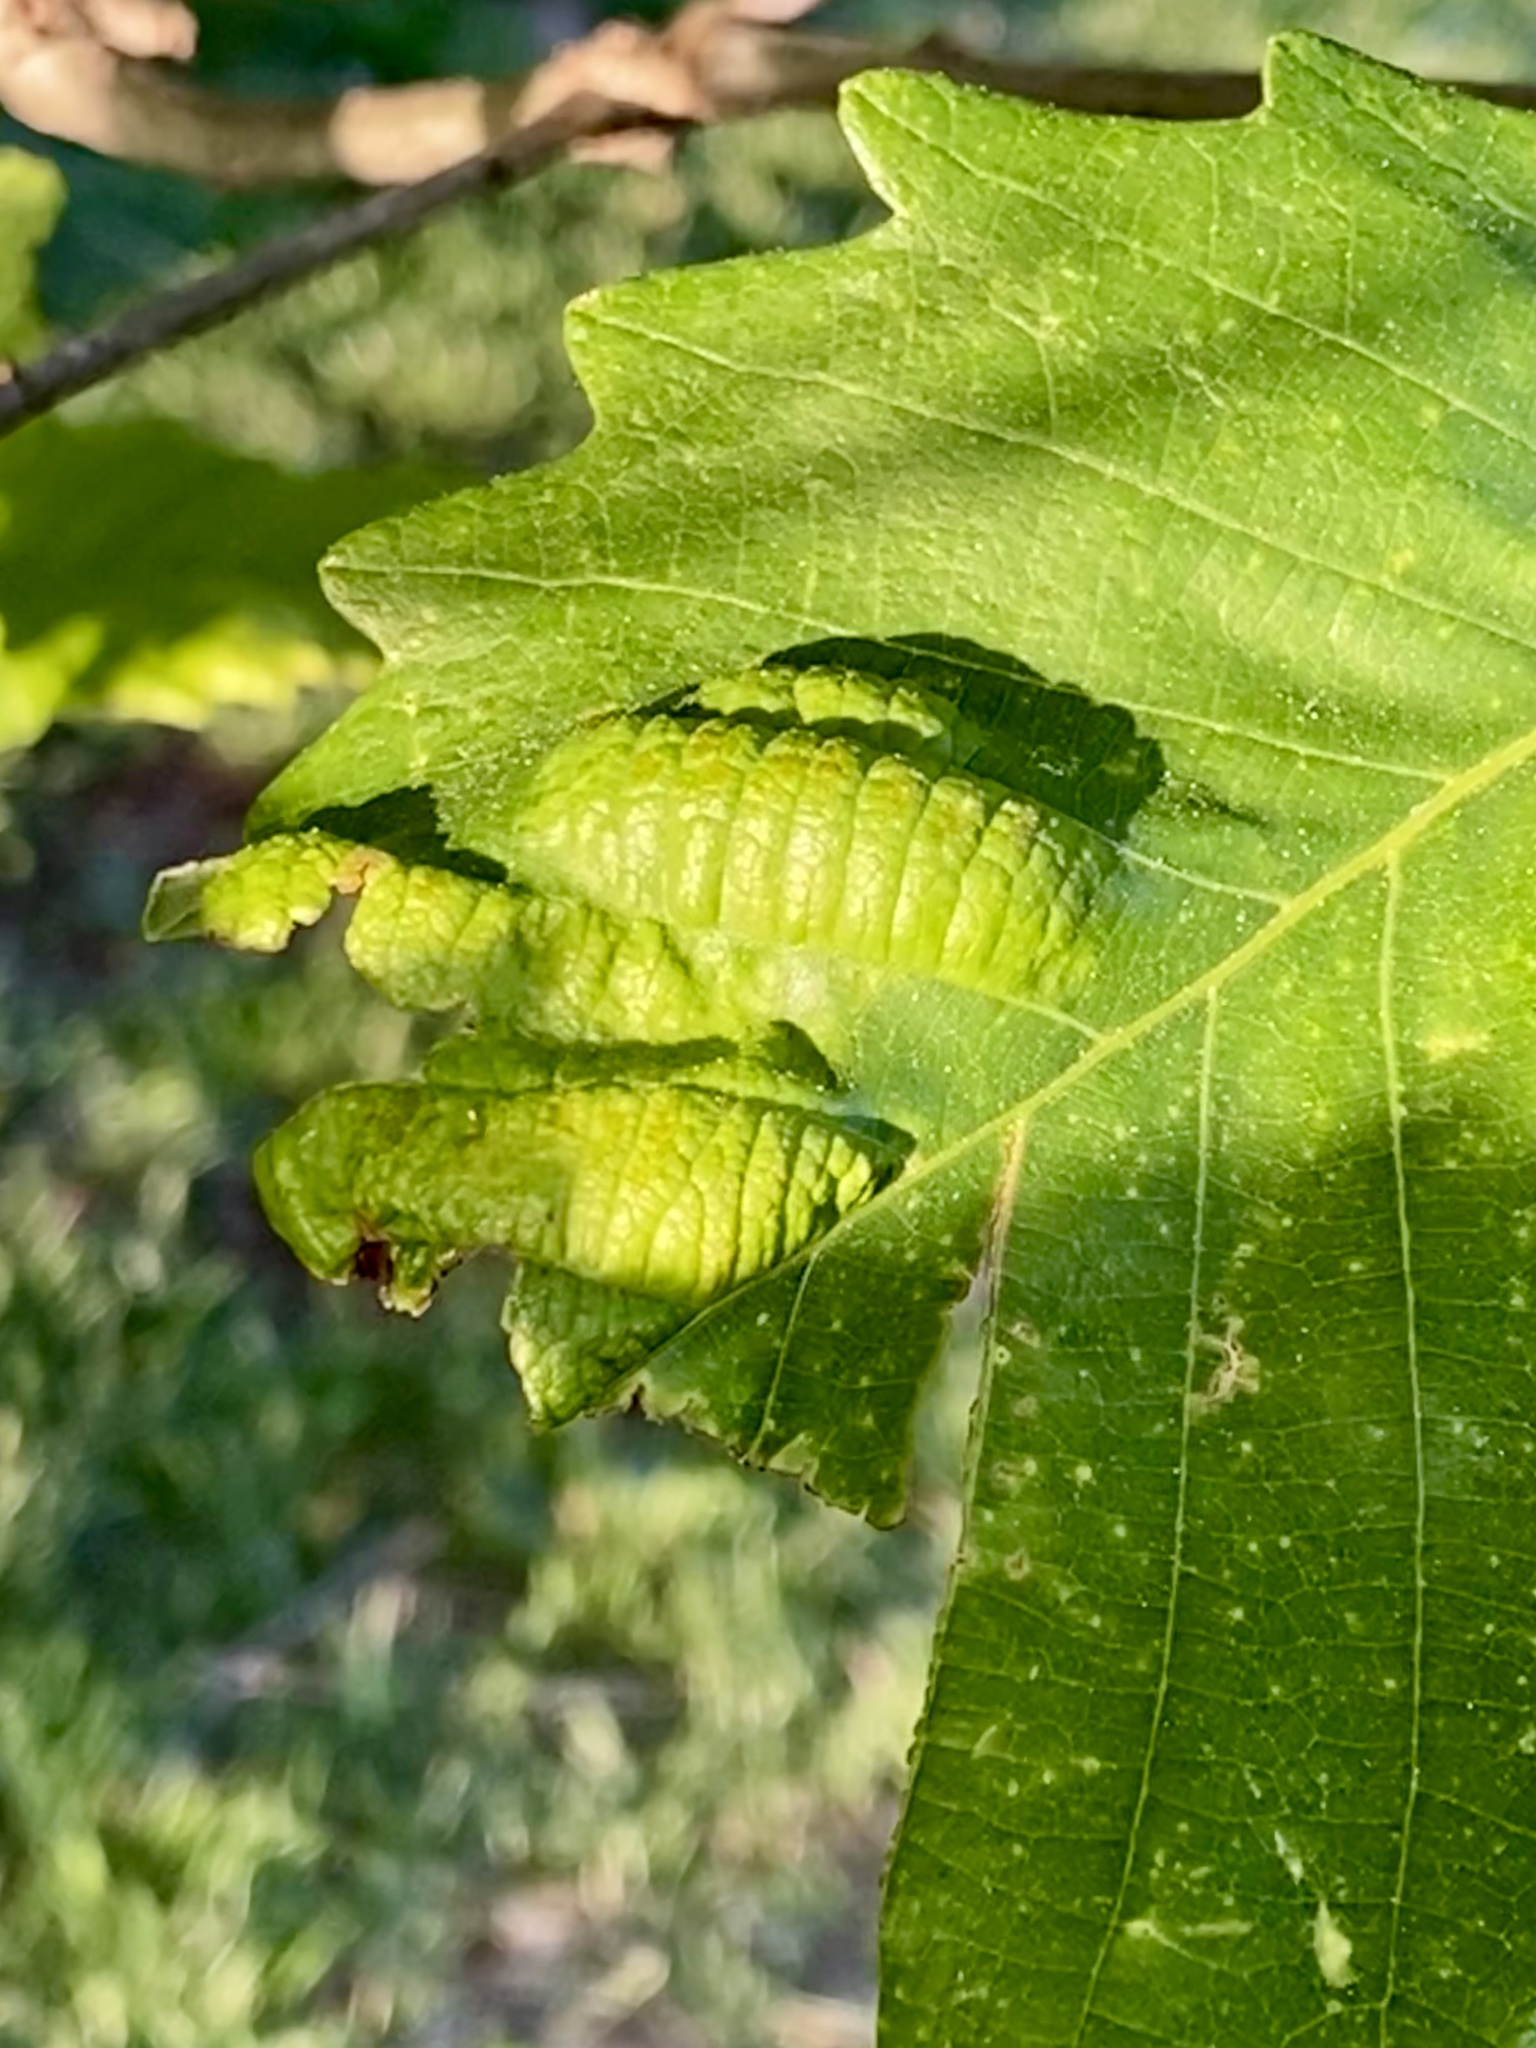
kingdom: Fungi
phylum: Ascomycota
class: Taphrinomycetes
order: Taphrinales
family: Taphrinaceae
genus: Taphrina
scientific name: Taphrina caerulescens
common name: Oak leaf blister
